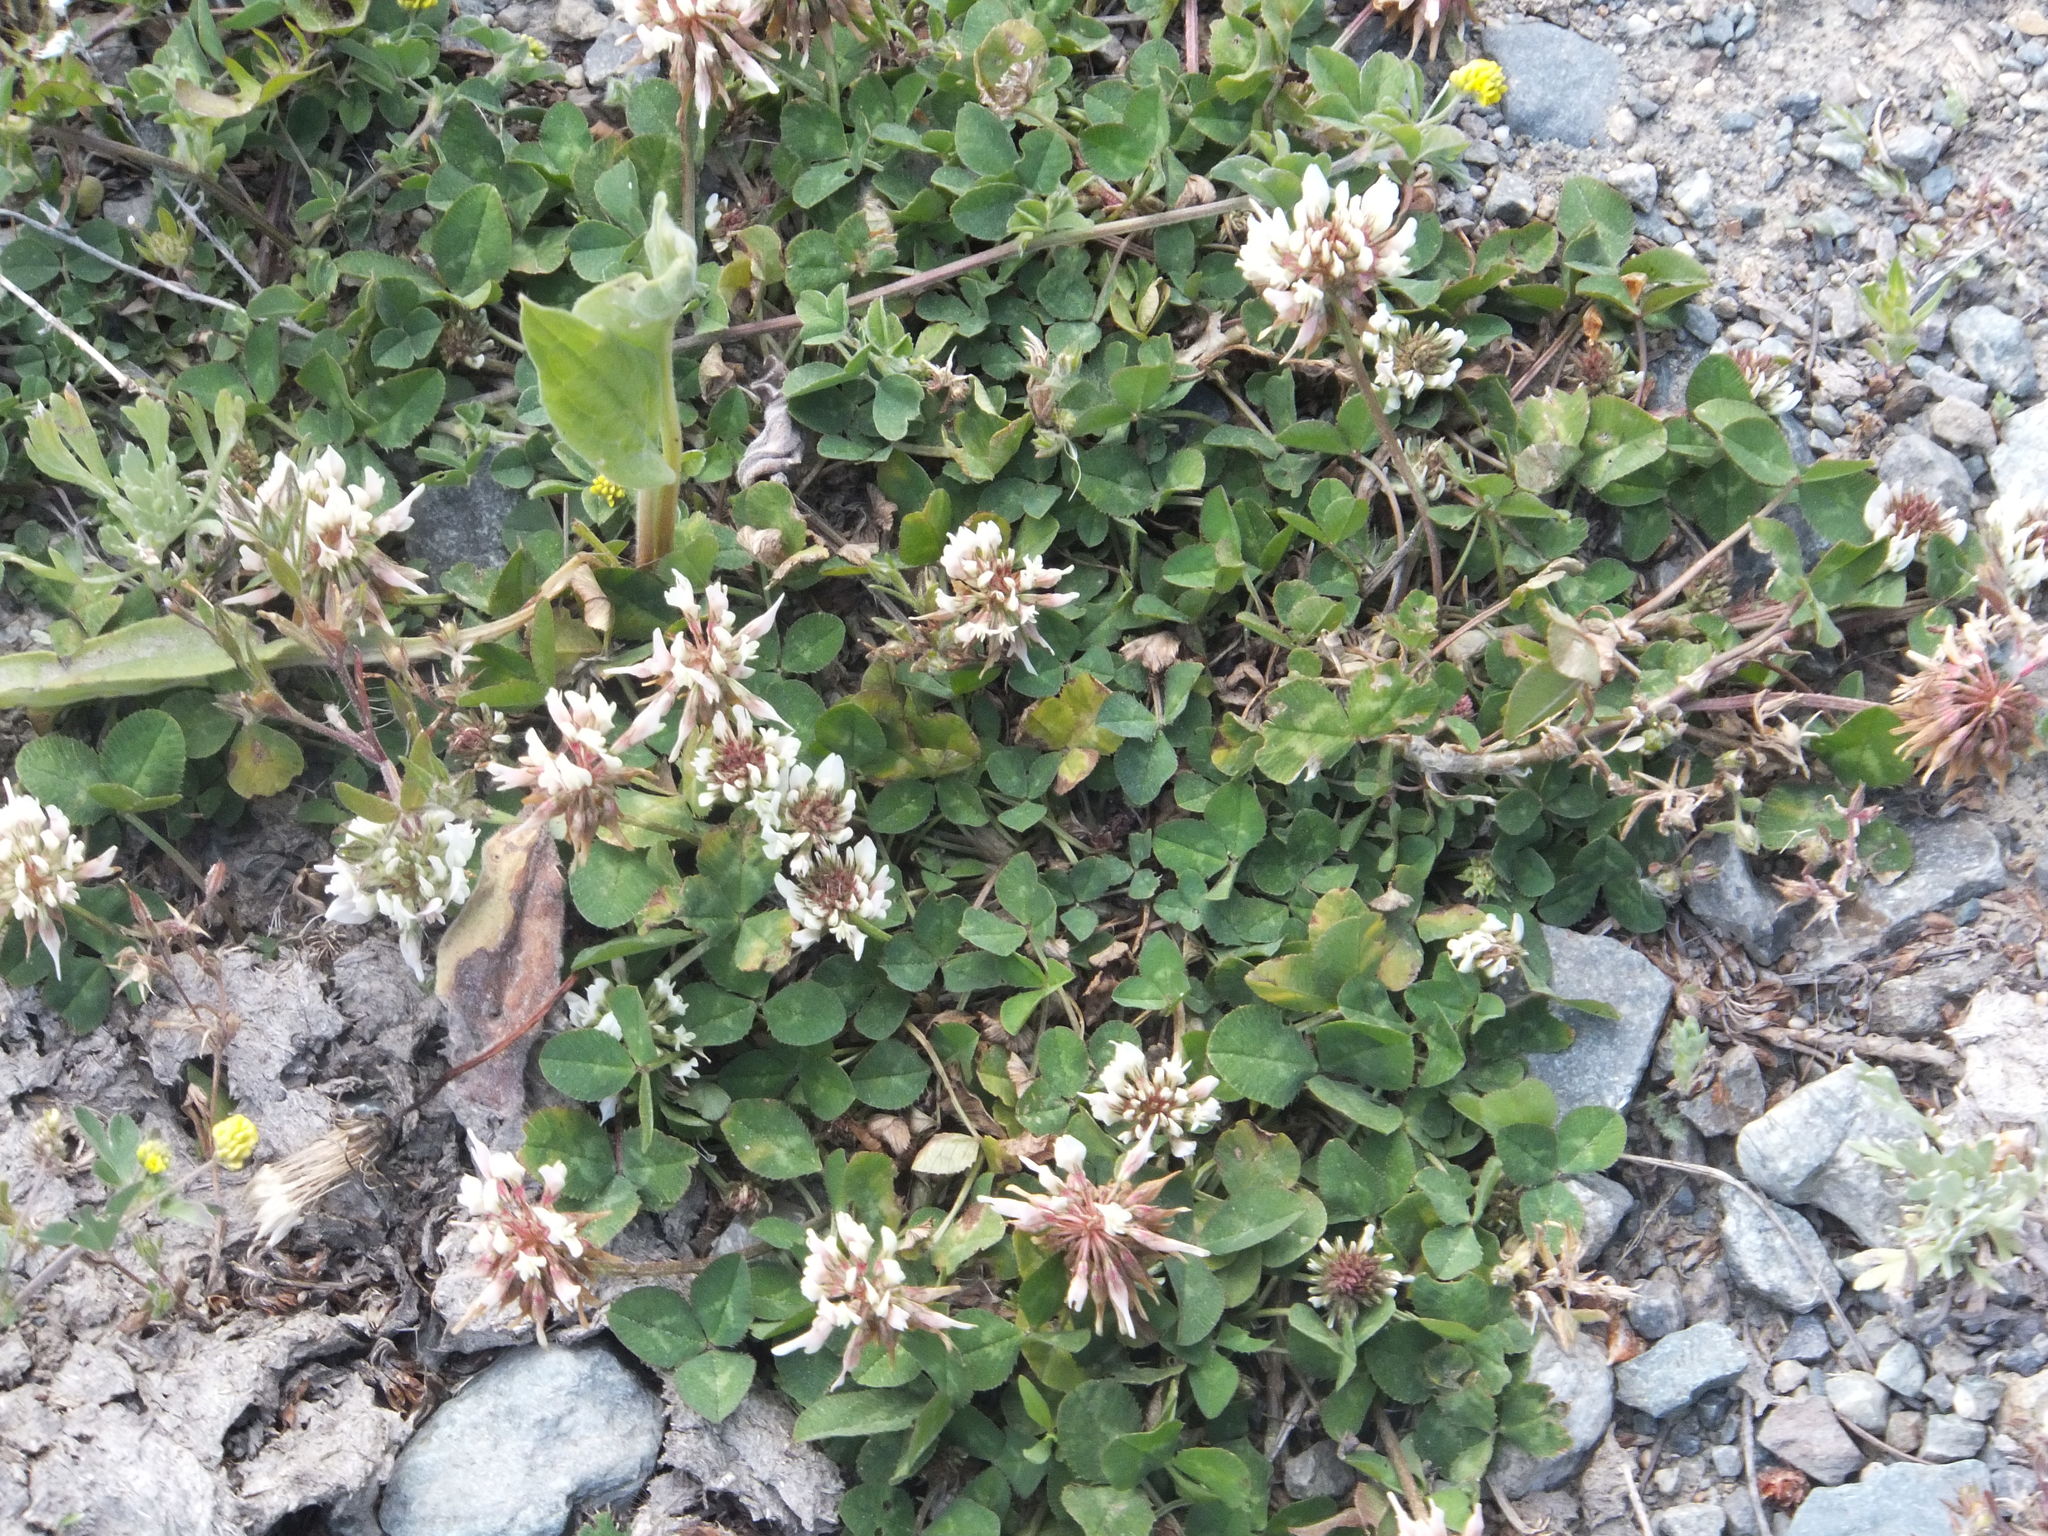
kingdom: Plantae
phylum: Tracheophyta
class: Magnoliopsida
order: Fabales
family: Fabaceae
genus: Trifolium
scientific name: Trifolium repens
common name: White clover
